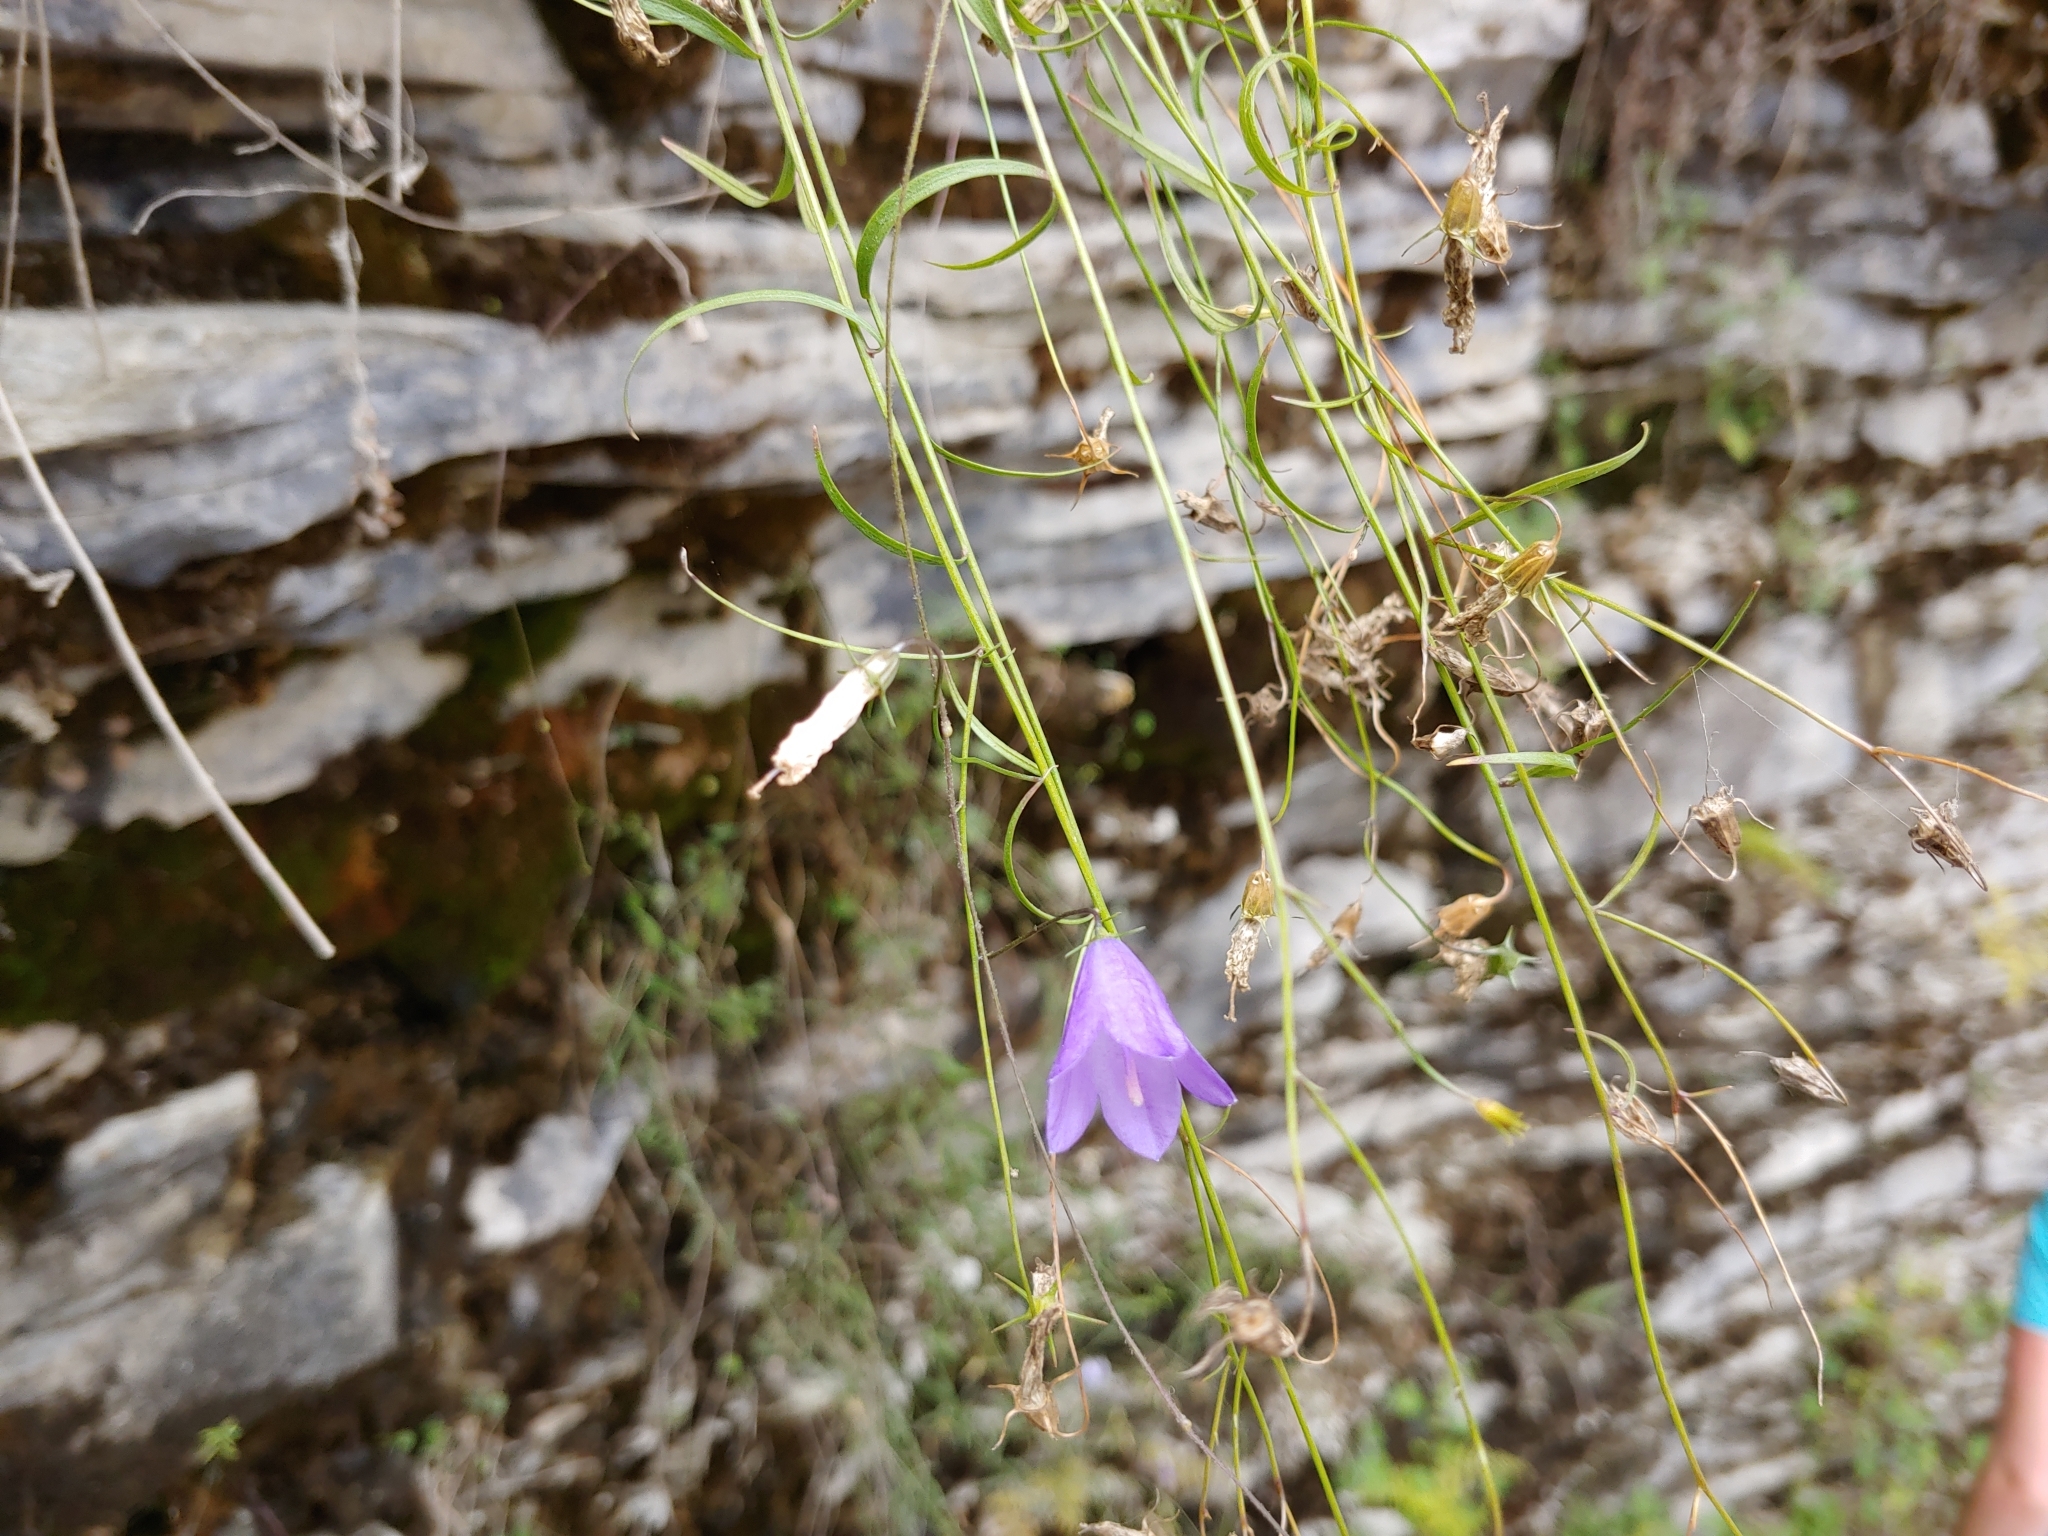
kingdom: Plantae
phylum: Tracheophyta
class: Magnoliopsida
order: Asterales
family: Campanulaceae
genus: Campanula
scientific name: Campanula intercedens
